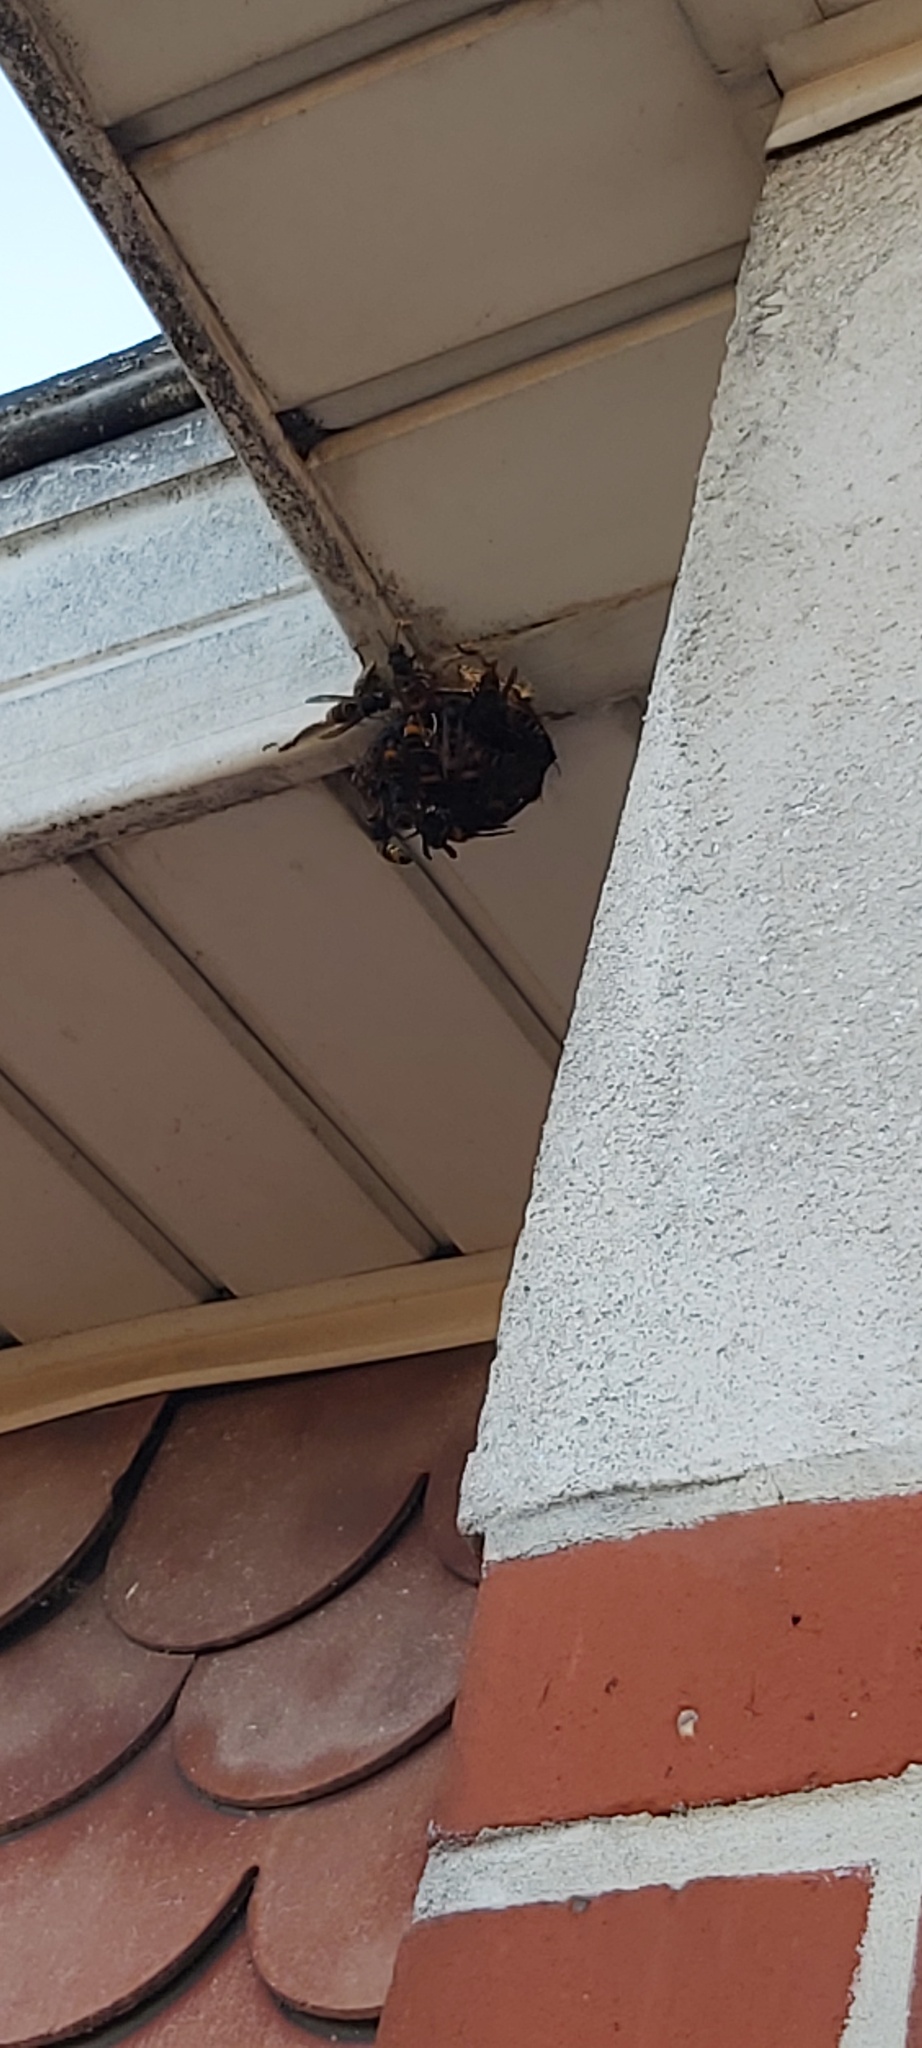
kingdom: Animalia
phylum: Arthropoda
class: Insecta
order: Hymenoptera
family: Vespidae
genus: Vespa
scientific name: Vespa velutina
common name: Asian hornet
